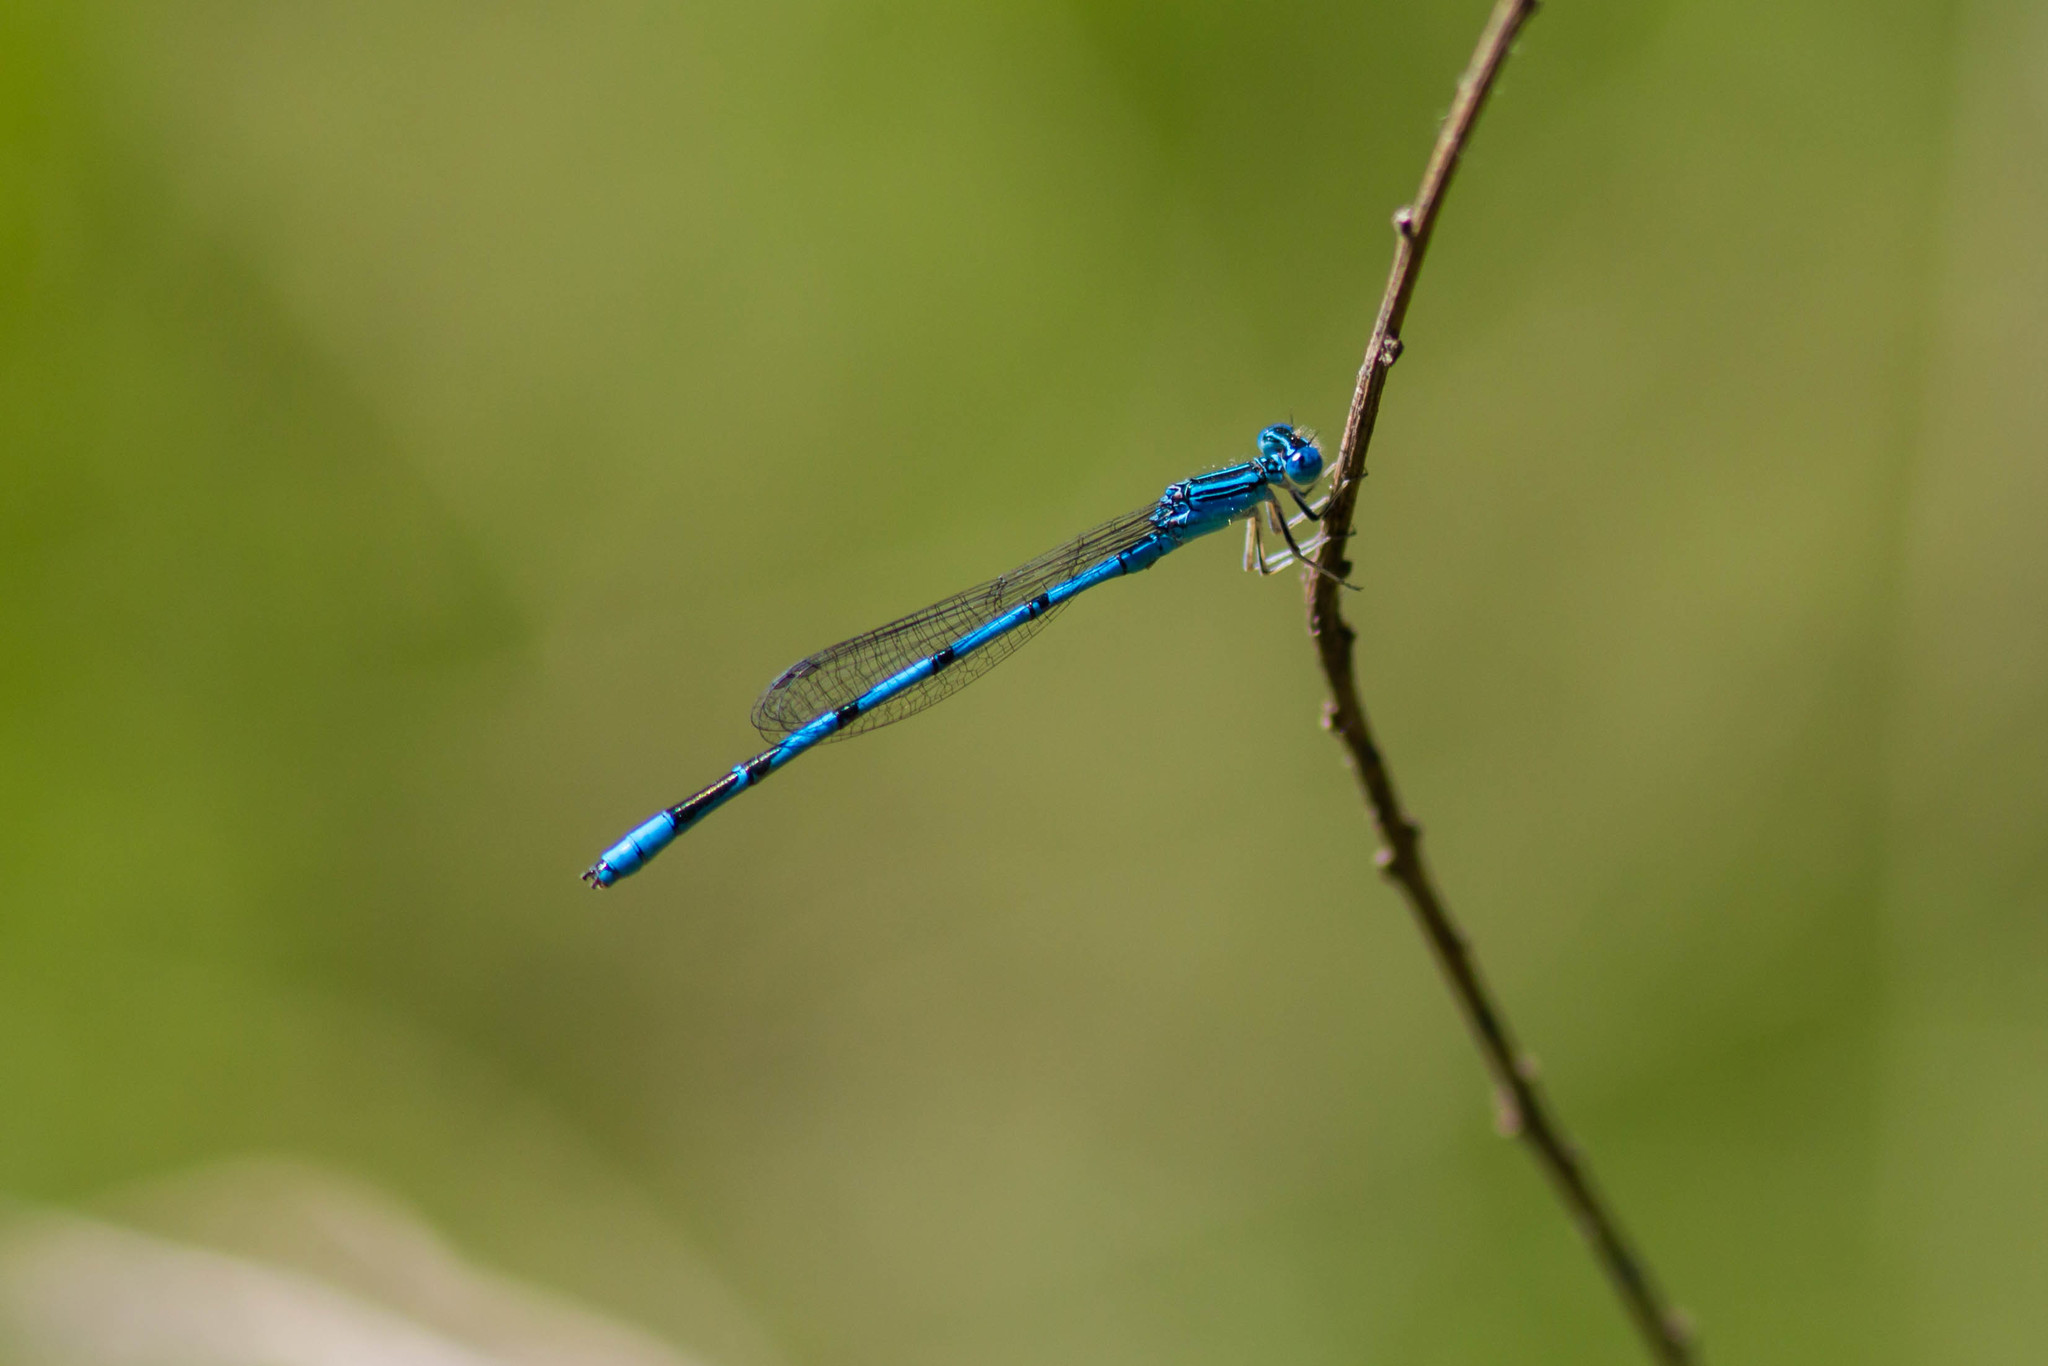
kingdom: Animalia
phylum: Arthropoda
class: Insecta
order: Odonata
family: Coenagrionidae
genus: Enallagma
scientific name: Enallagma basidens
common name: Double-striped bluet
